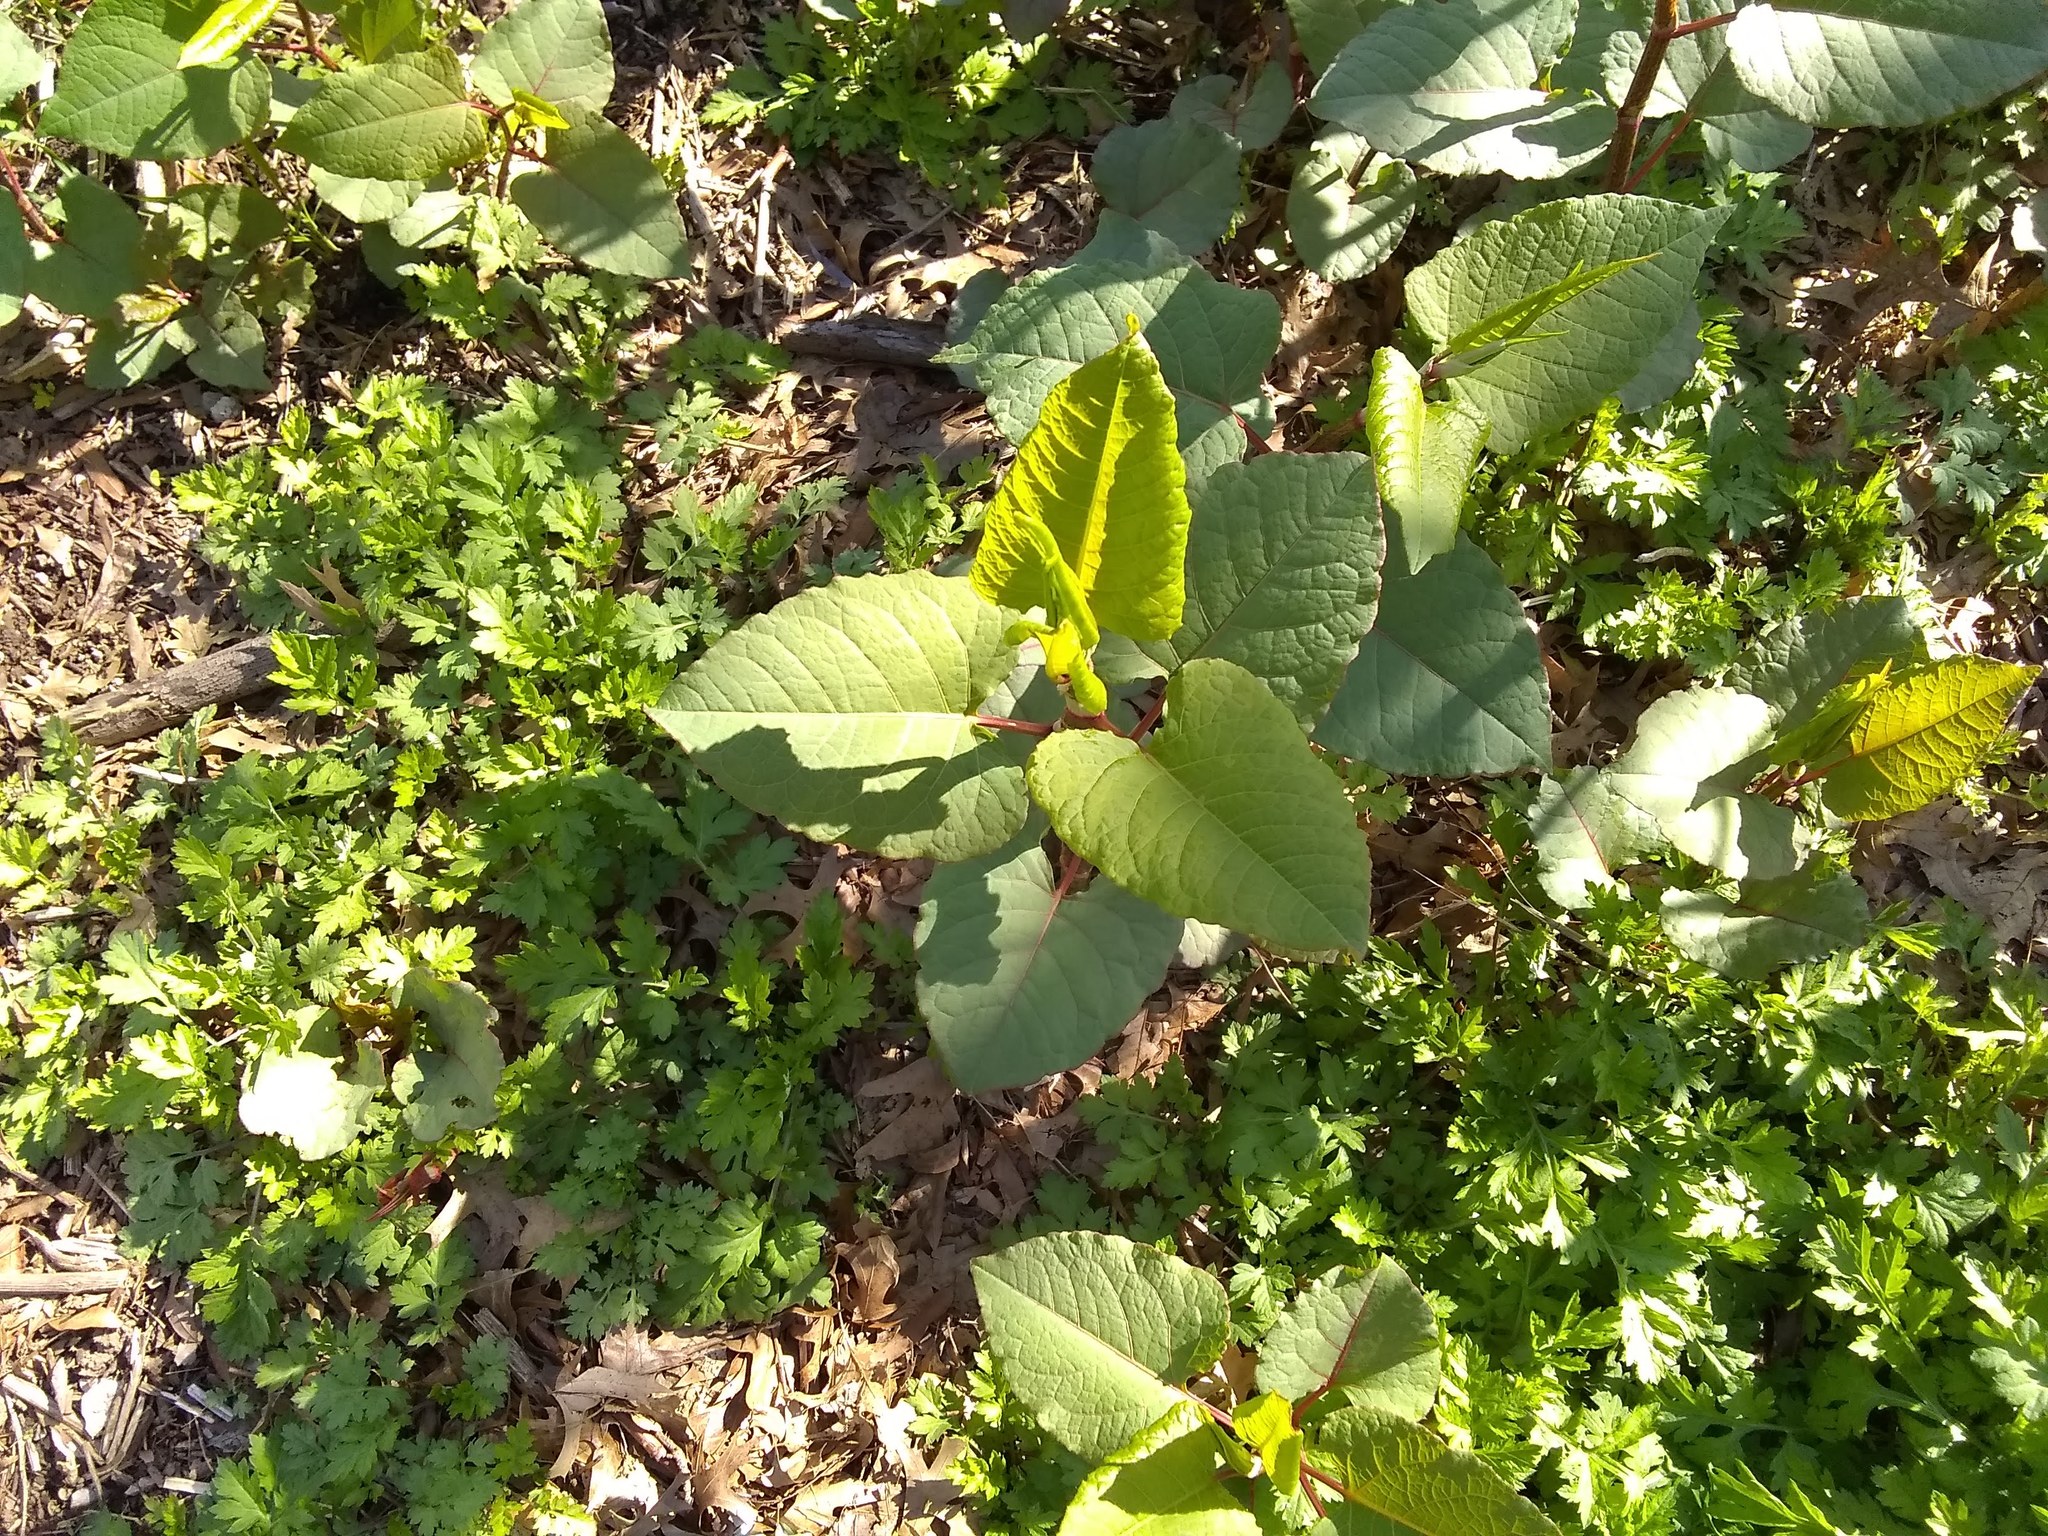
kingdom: Plantae
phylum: Tracheophyta
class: Magnoliopsida
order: Caryophyllales
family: Polygonaceae
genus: Reynoutria
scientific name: Reynoutria bohemica
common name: Bohemian knotweed
